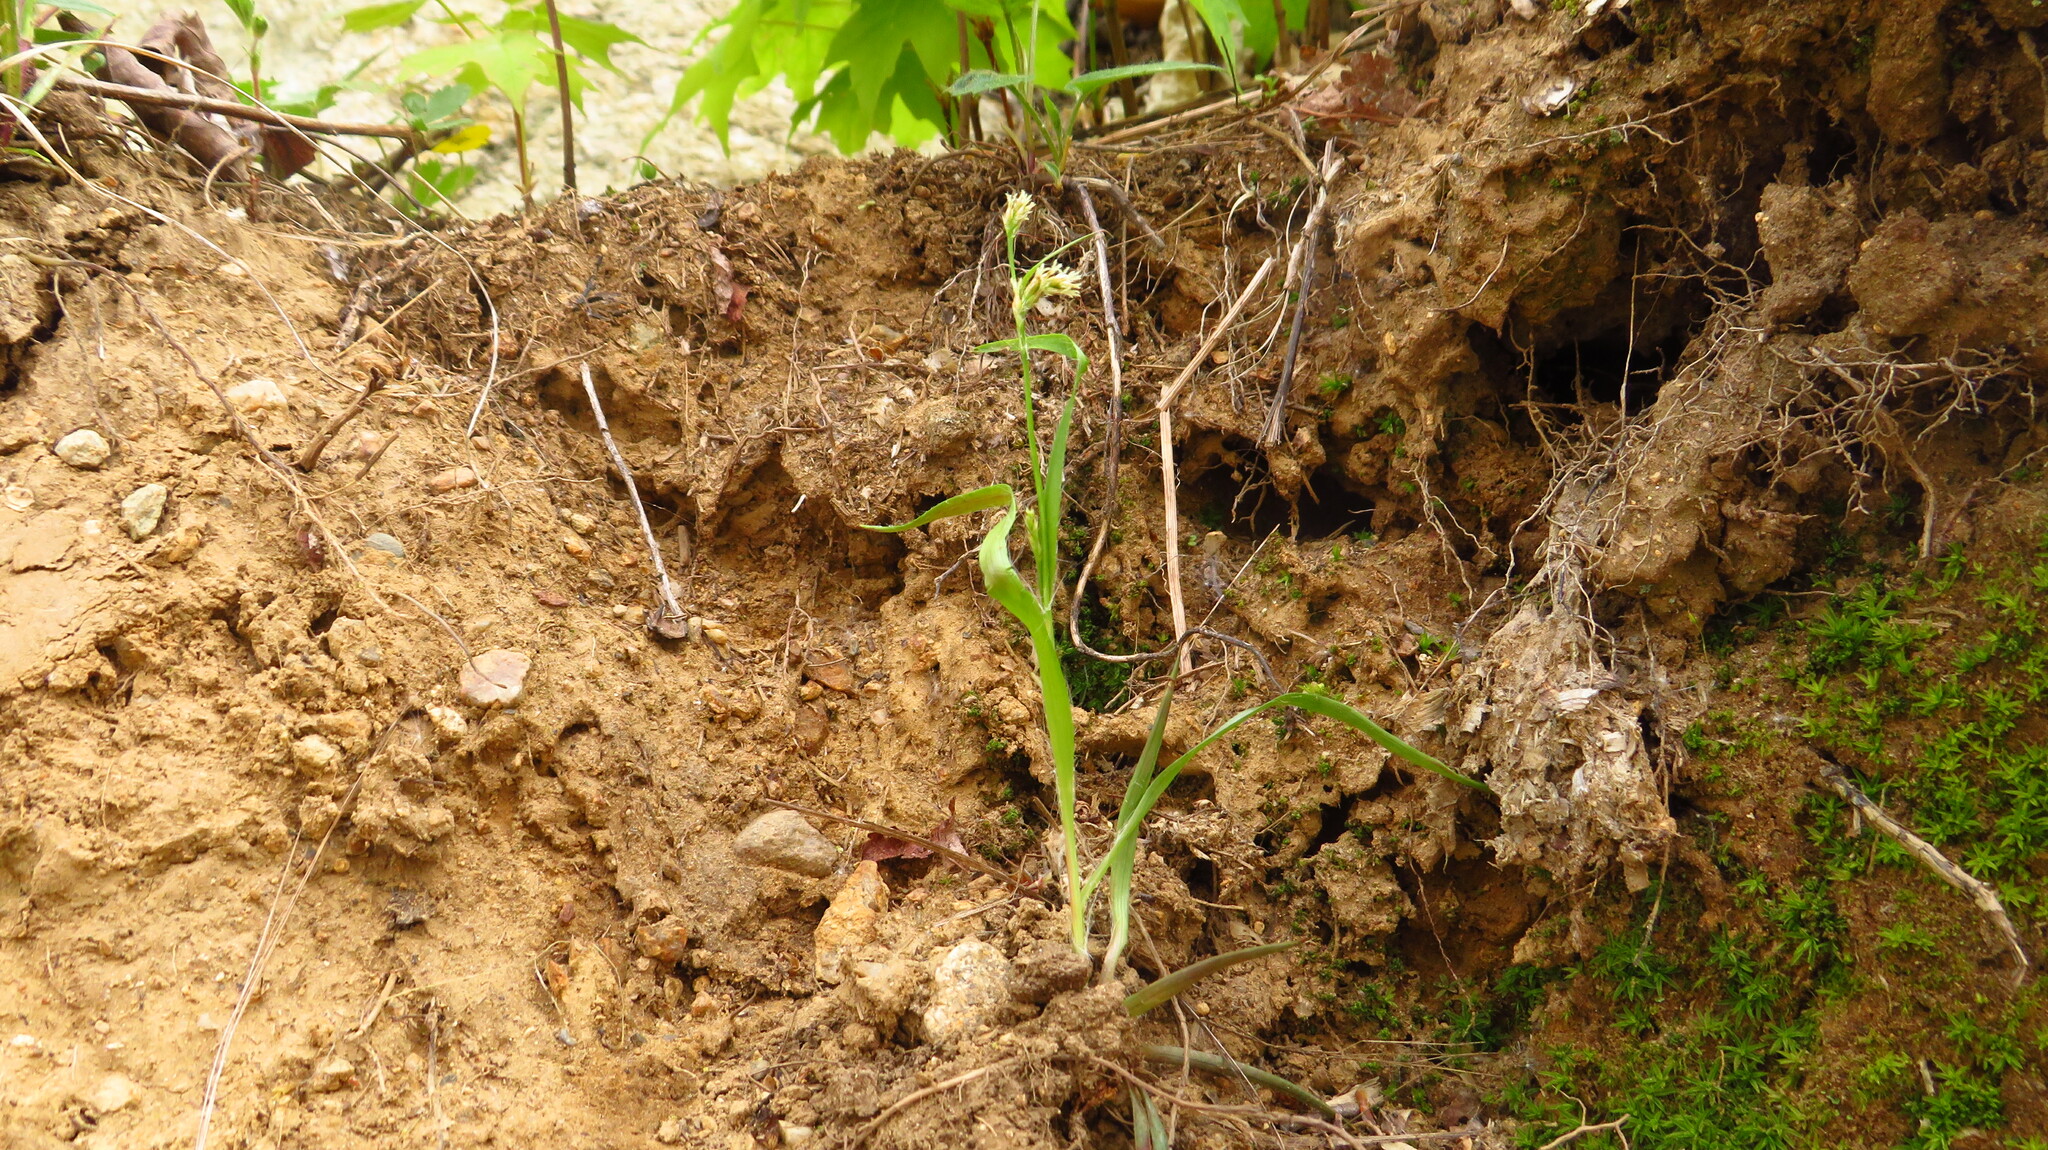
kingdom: Plantae
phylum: Tracheophyta
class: Liliopsida
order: Poales
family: Juncaceae
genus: Luzula
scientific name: Luzula multiflora
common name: Heath wood-rush
